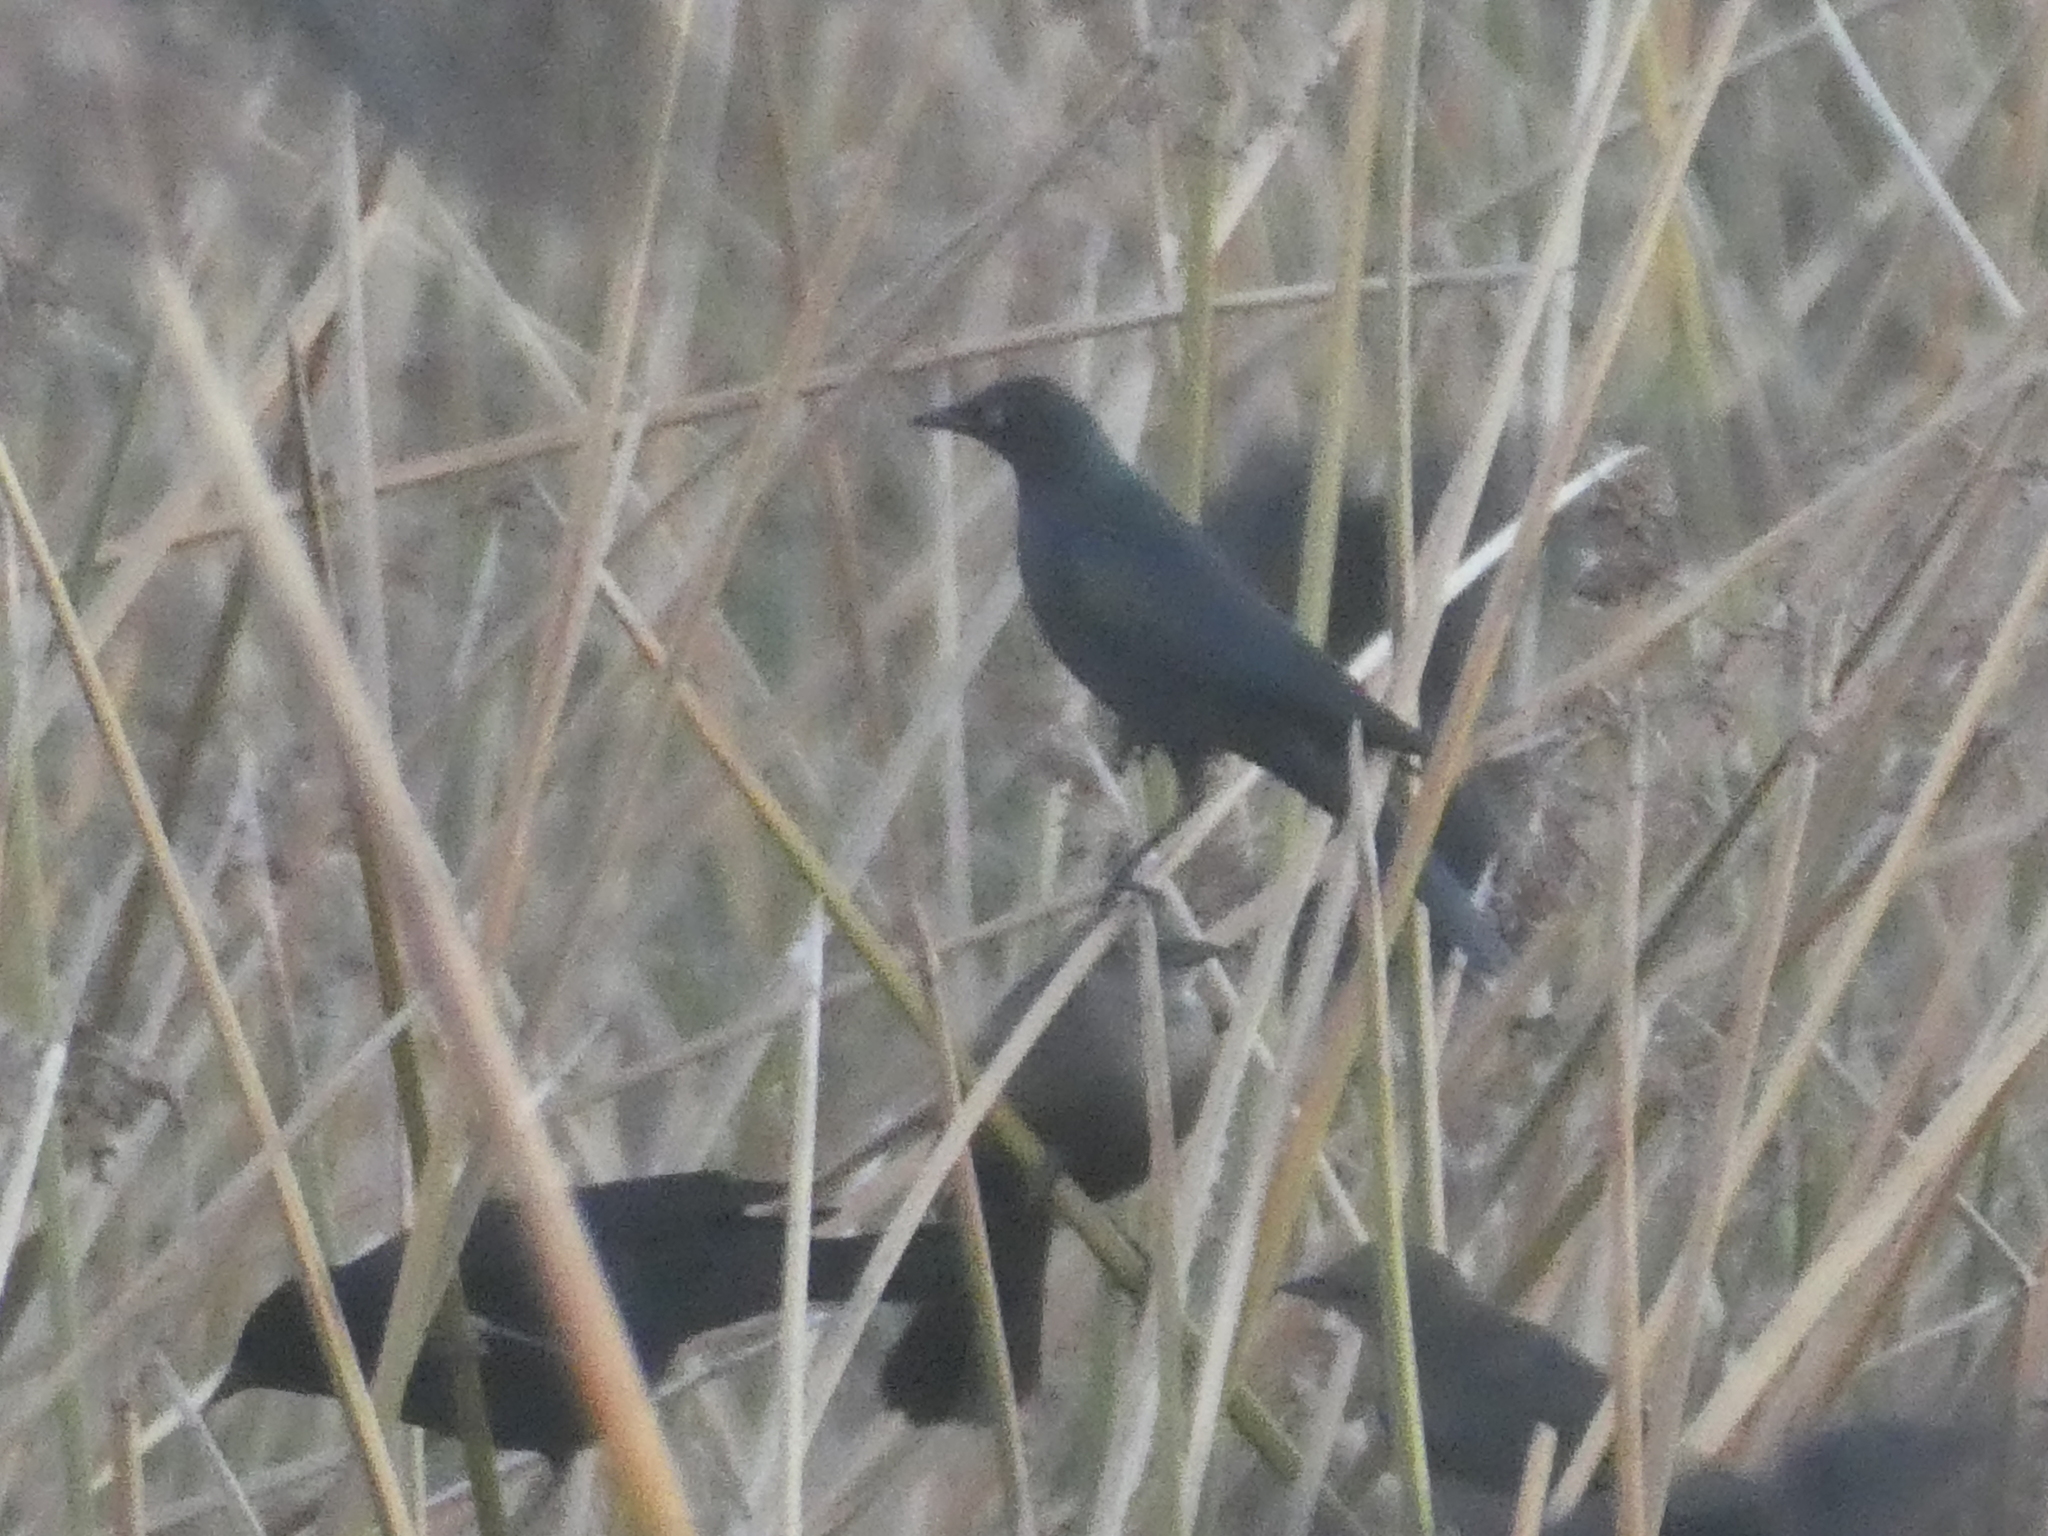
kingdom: Animalia
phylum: Chordata
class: Aves
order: Passeriformes
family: Icteridae
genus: Euphagus
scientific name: Euphagus cyanocephalus
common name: Brewer's blackbird
